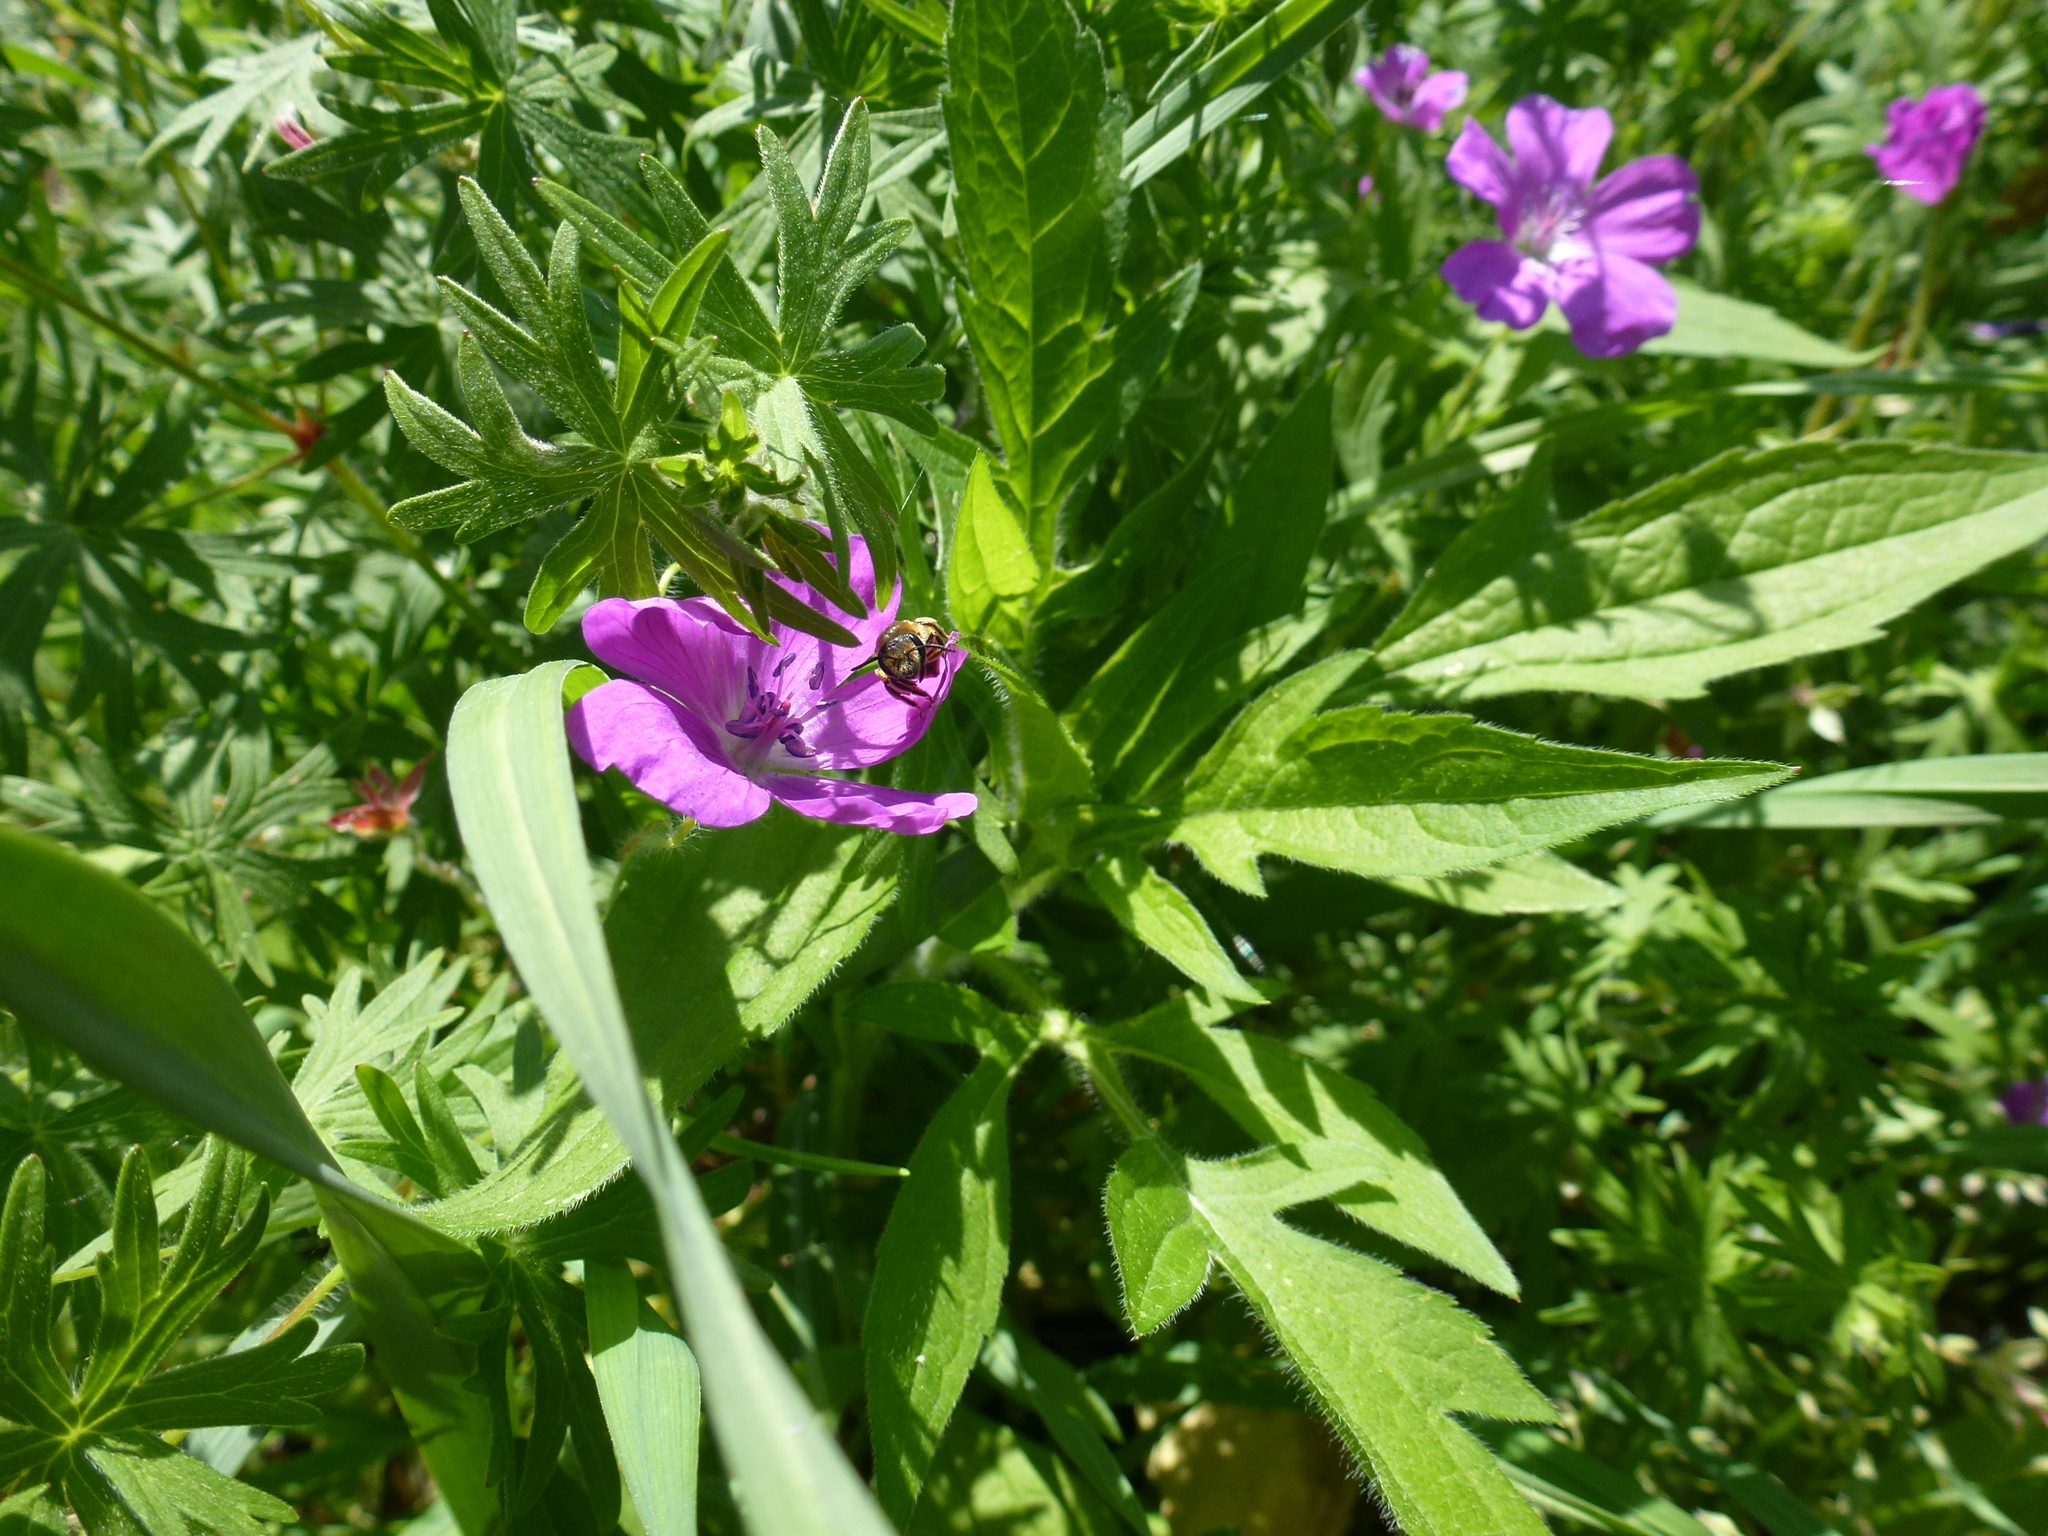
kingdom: Animalia
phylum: Arthropoda
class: Insecta
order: Hymenoptera
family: Andrenidae
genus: Andrena
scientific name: Andrena wilkella
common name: Wilke's mining bee
